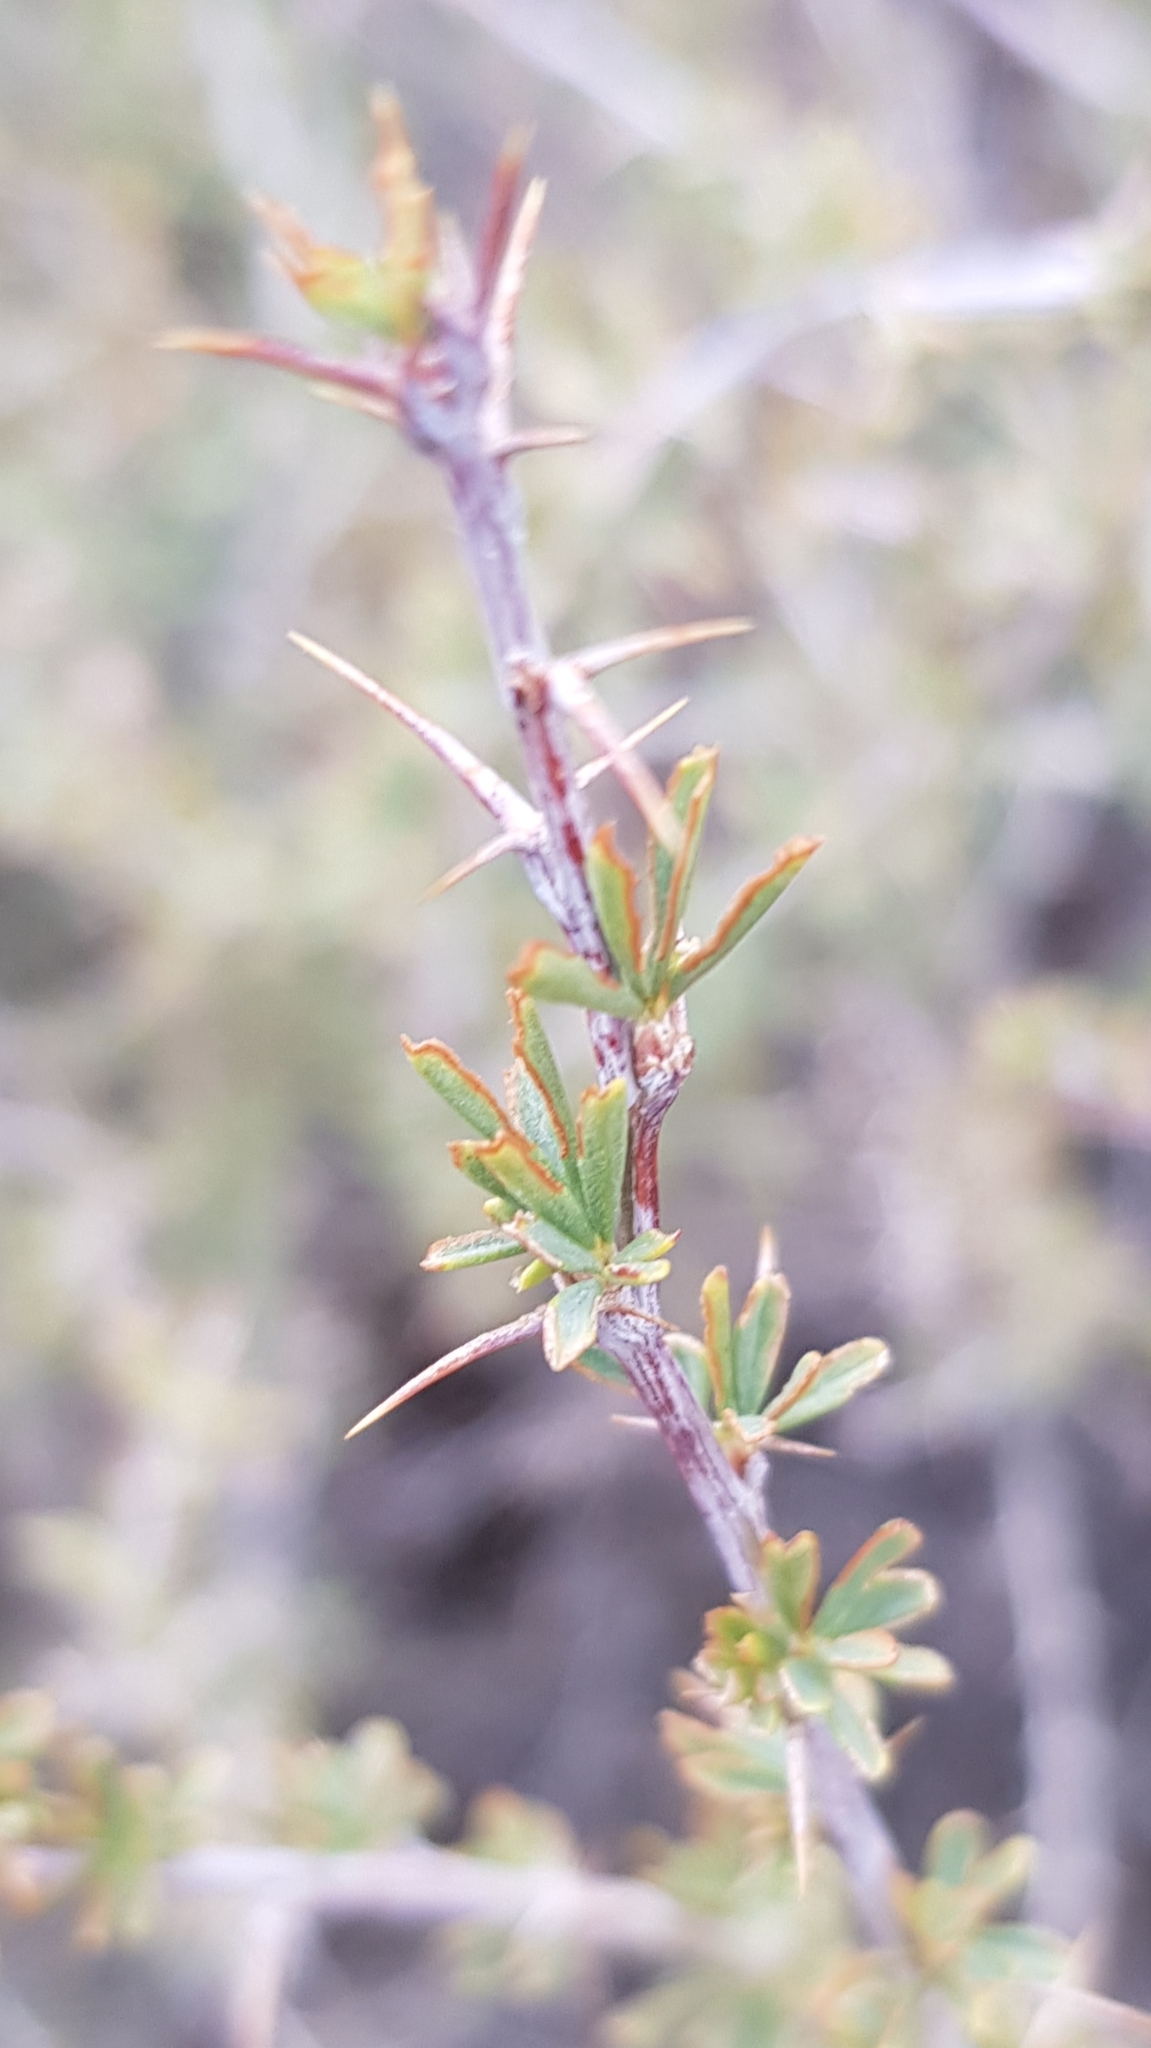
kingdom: Plantae
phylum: Tracheophyta
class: Magnoliopsida
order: Fabales
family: Fabaceae
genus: Caragana
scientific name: Caragana pygmaea
